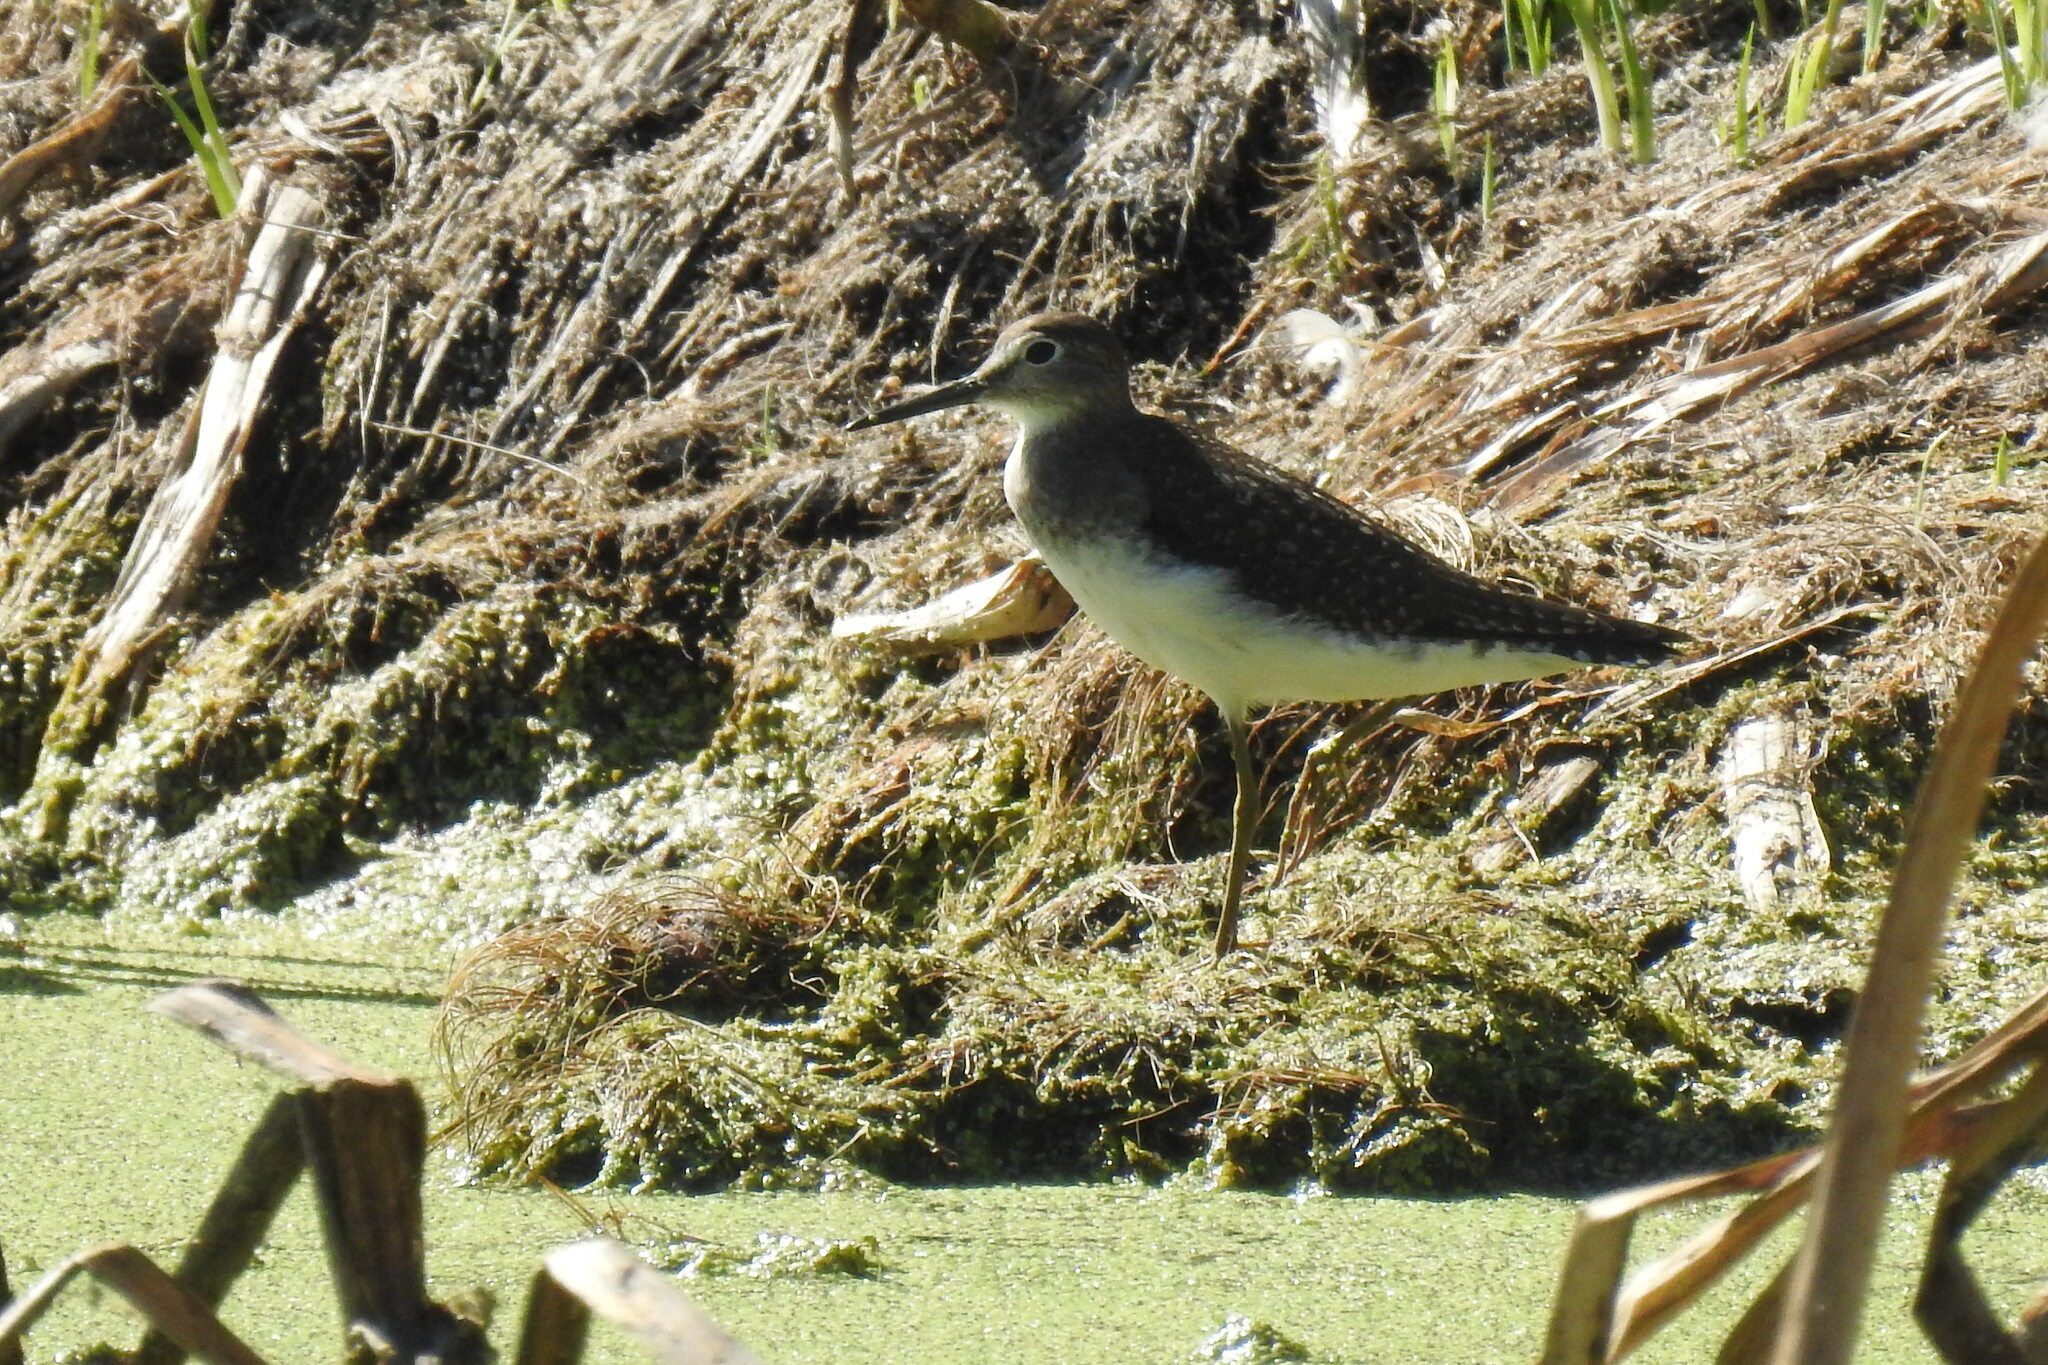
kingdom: Animalia
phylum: Chordata
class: Aves
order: Charadriiformes
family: Scolopacidae
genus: Tringa
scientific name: Tringa solitaria
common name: Solitary sandpiper
